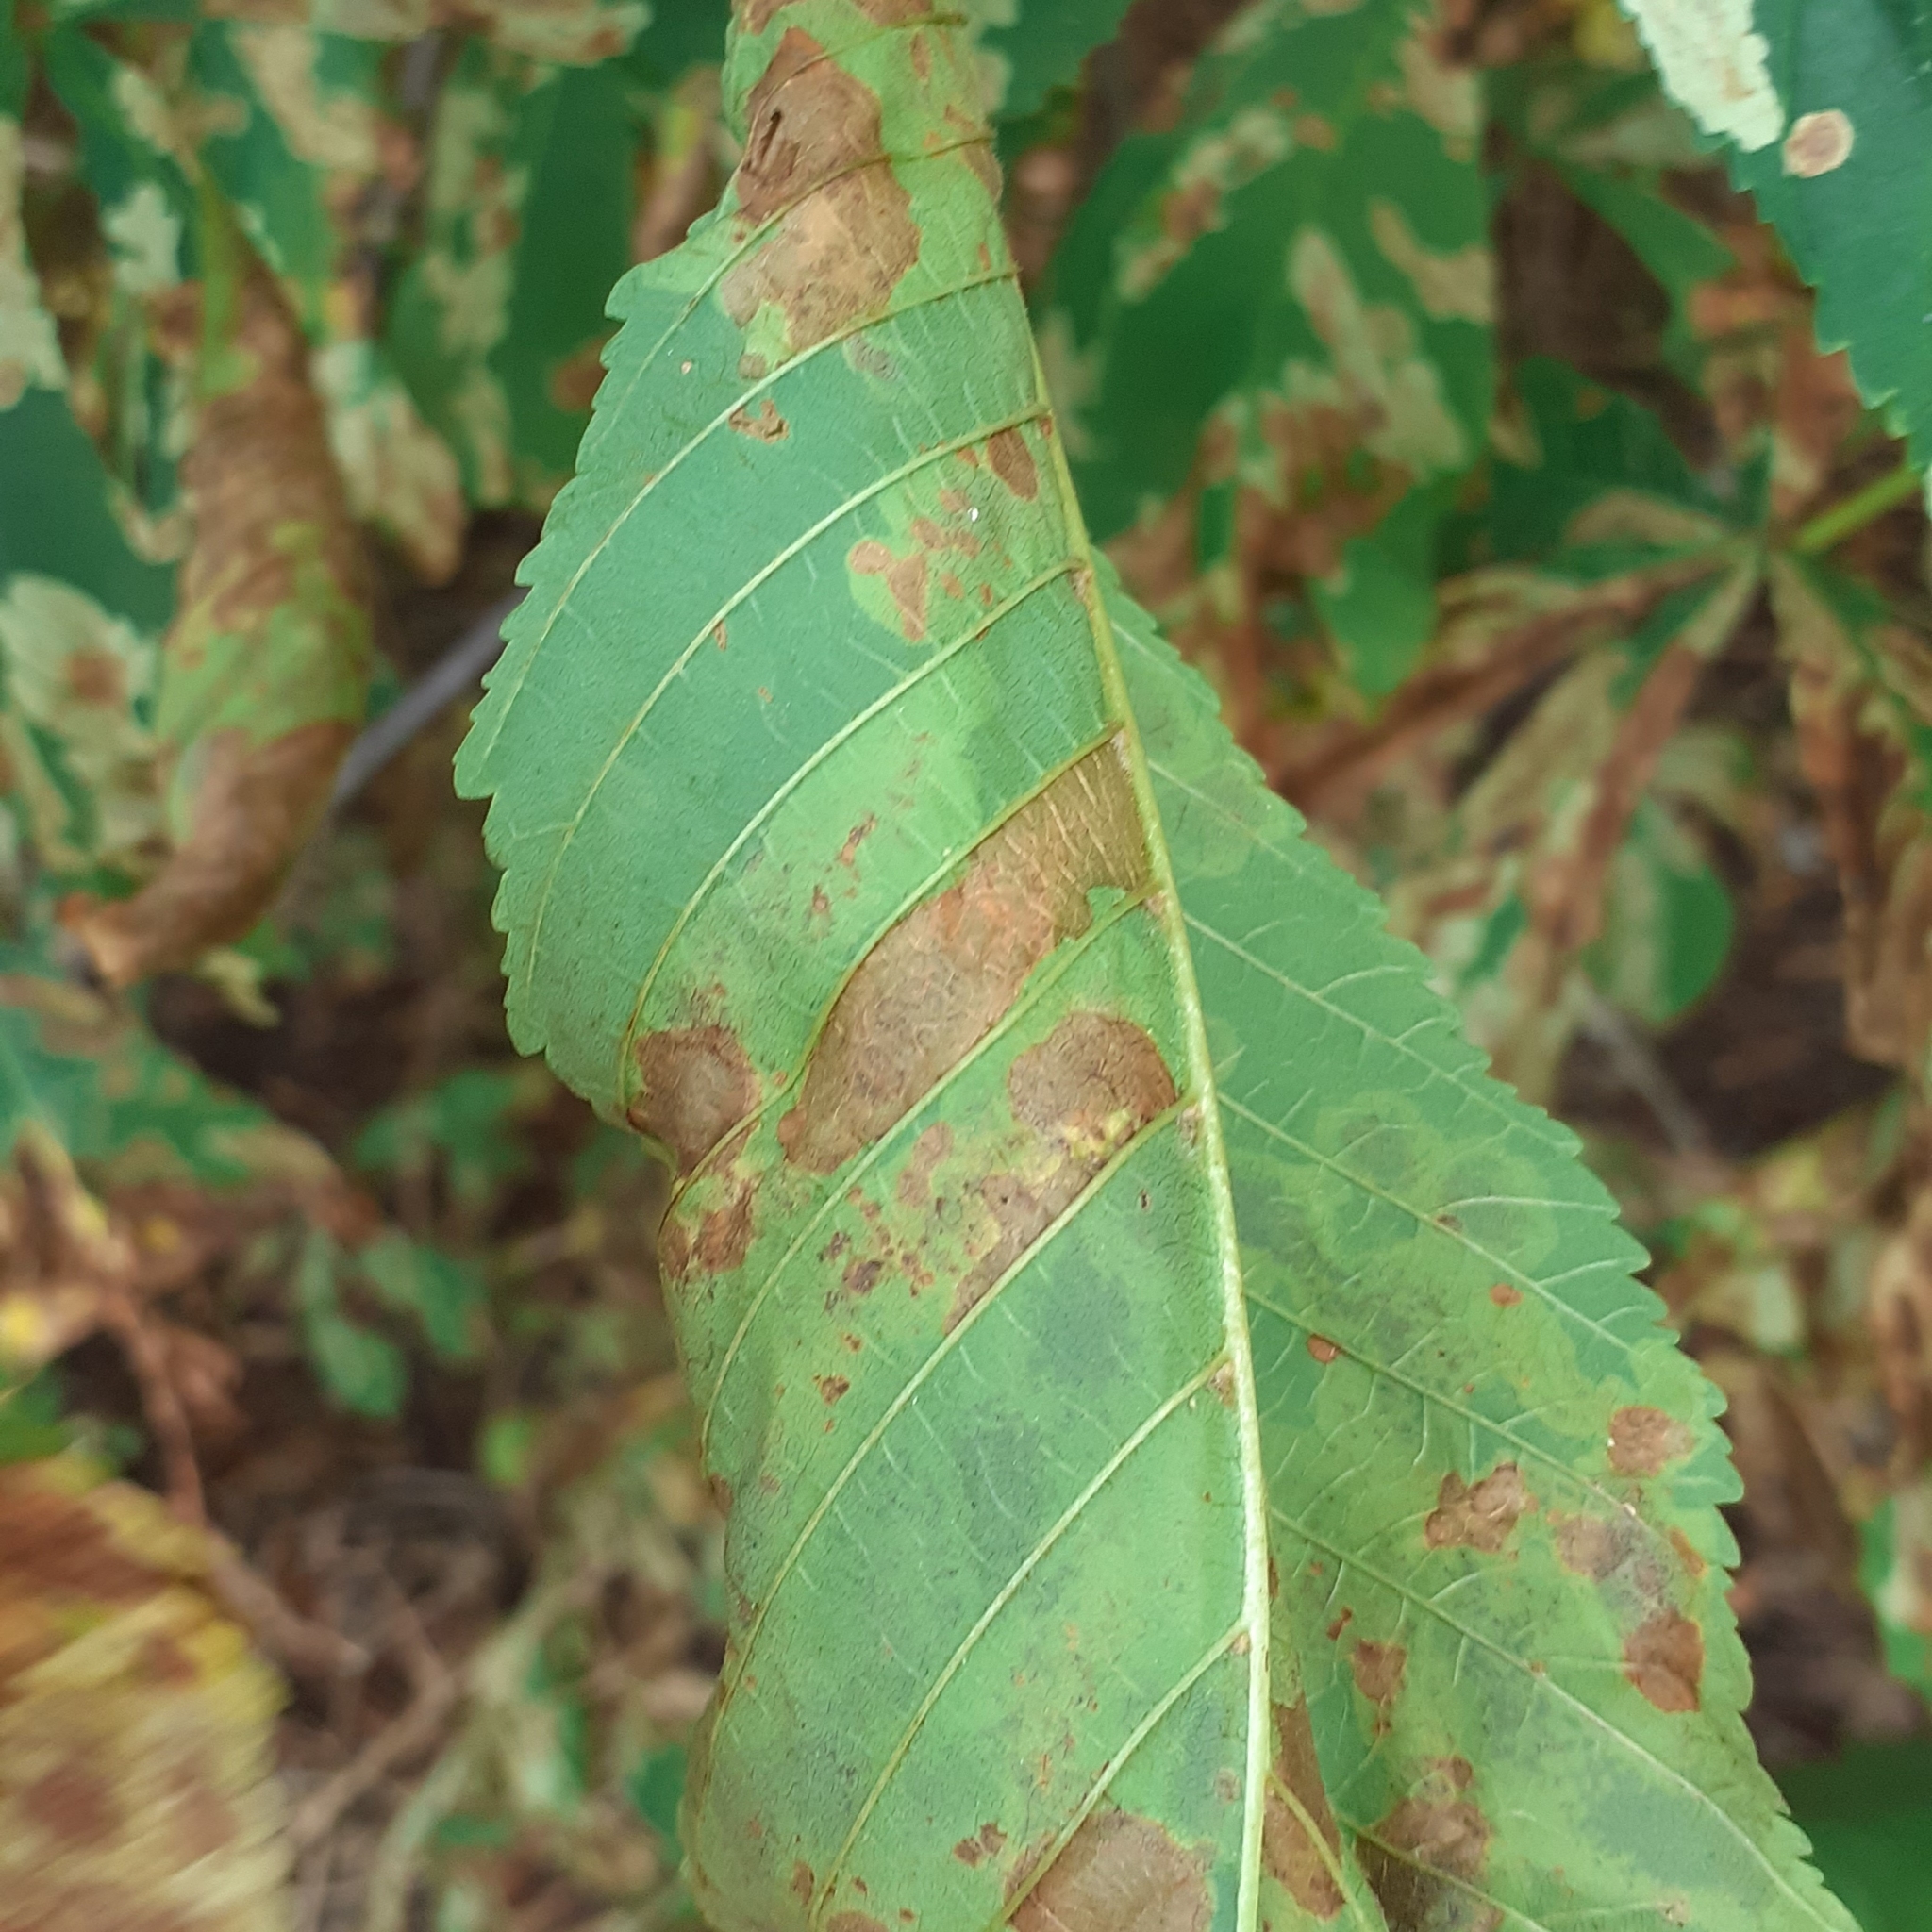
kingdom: Animalia
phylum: Arthropoda
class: Insecta
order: Lepidoptera
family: Gracillariidae
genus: Cameraria
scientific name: Cameraria ohridella
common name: Horse-chestnut leaf-miner
